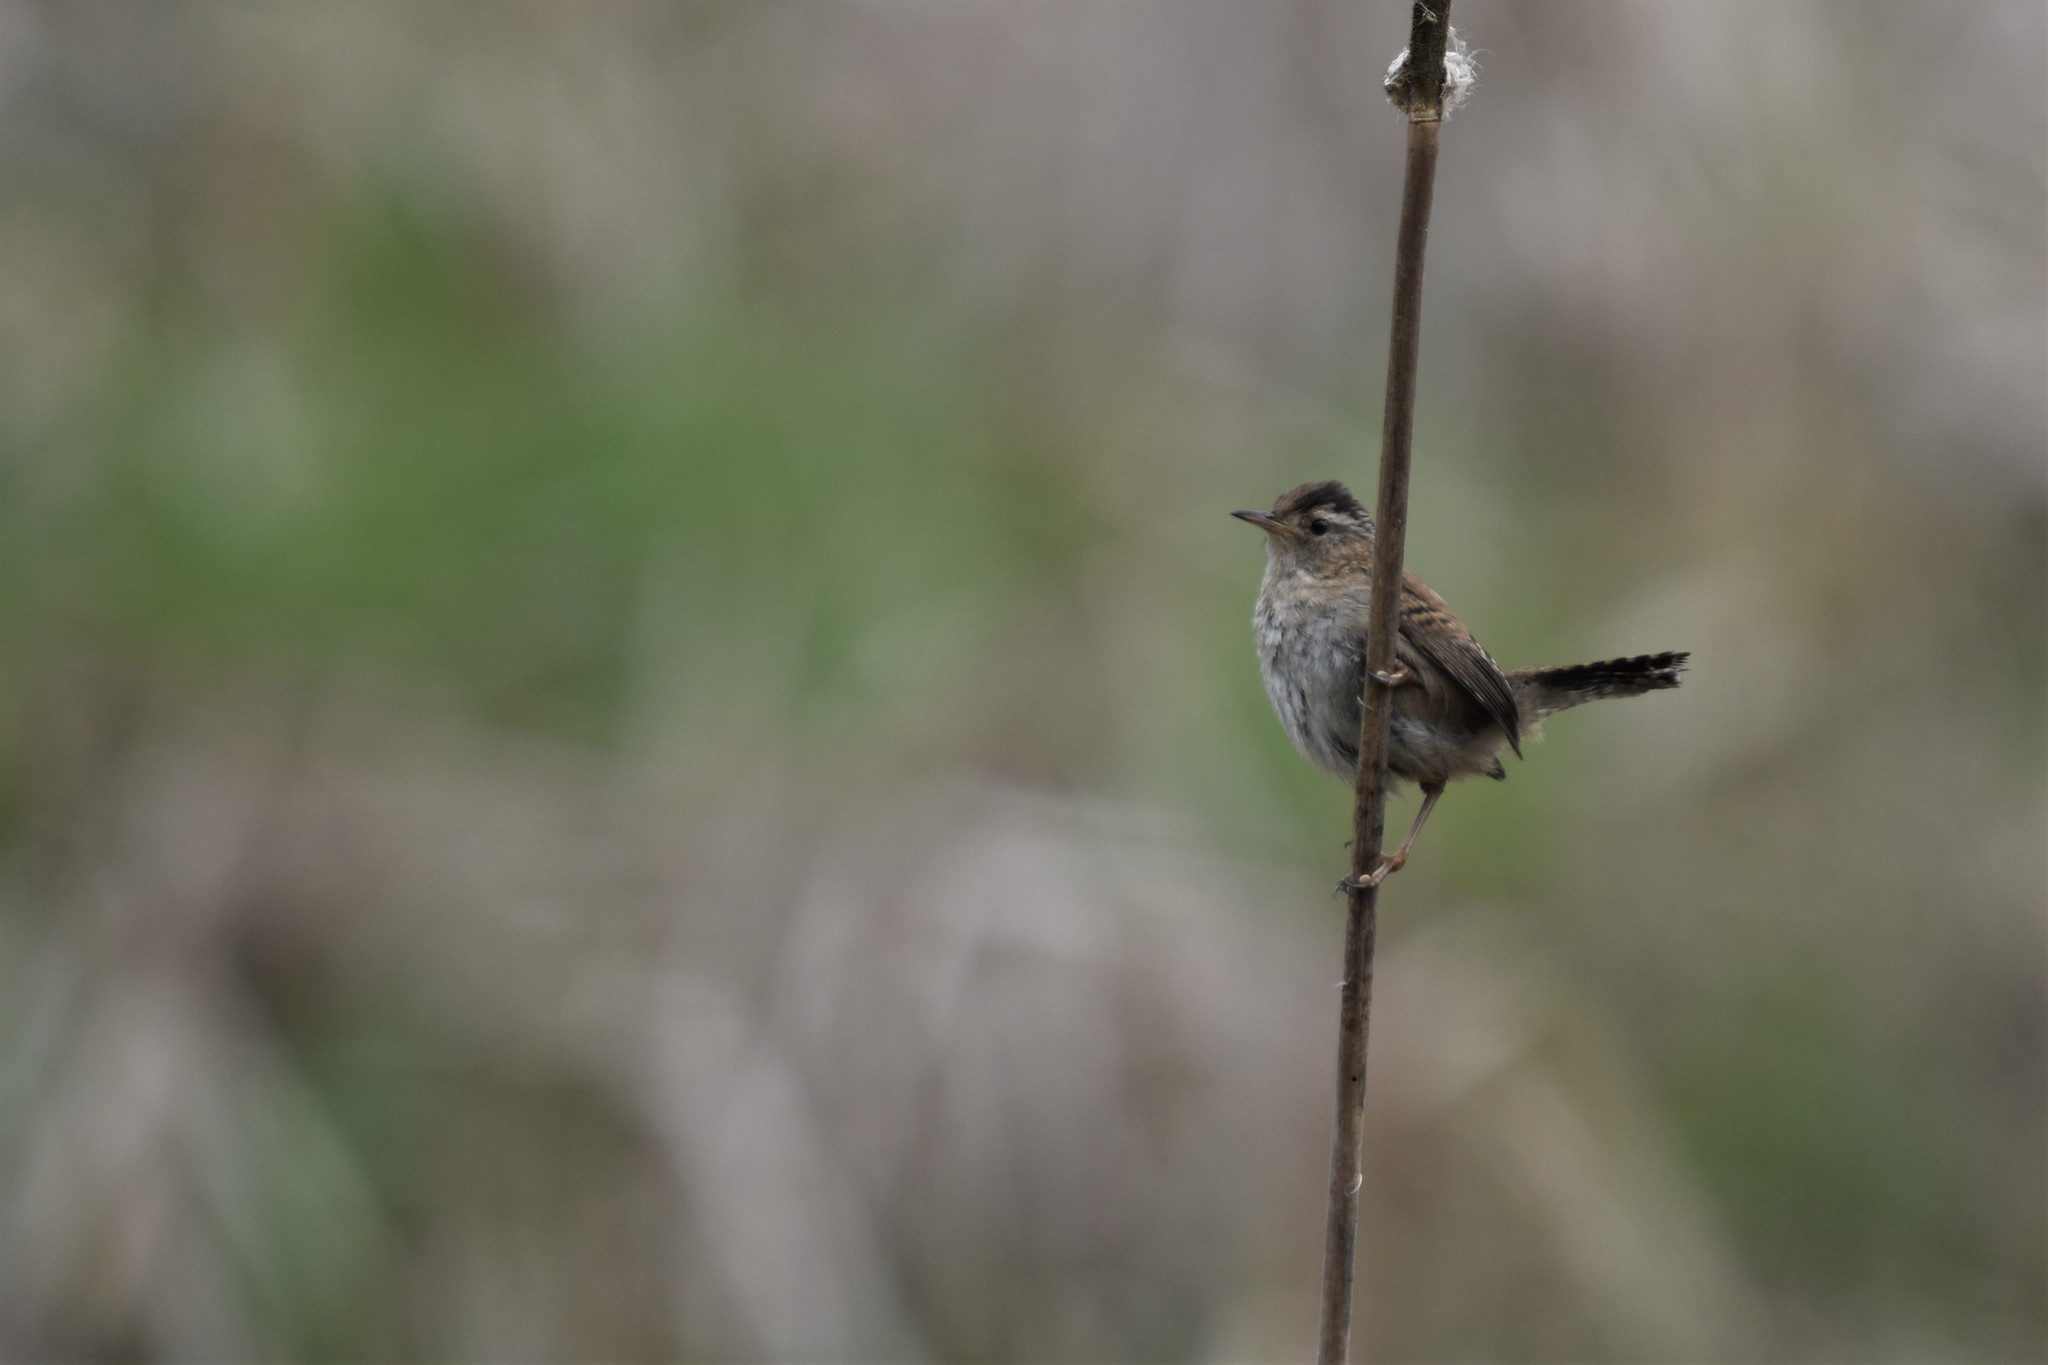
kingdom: Animalia
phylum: Chordata
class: Aves
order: Passeriformes
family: Troglodytidae
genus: Cistothorus
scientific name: Cistothorus palustris
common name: Marsh wren
